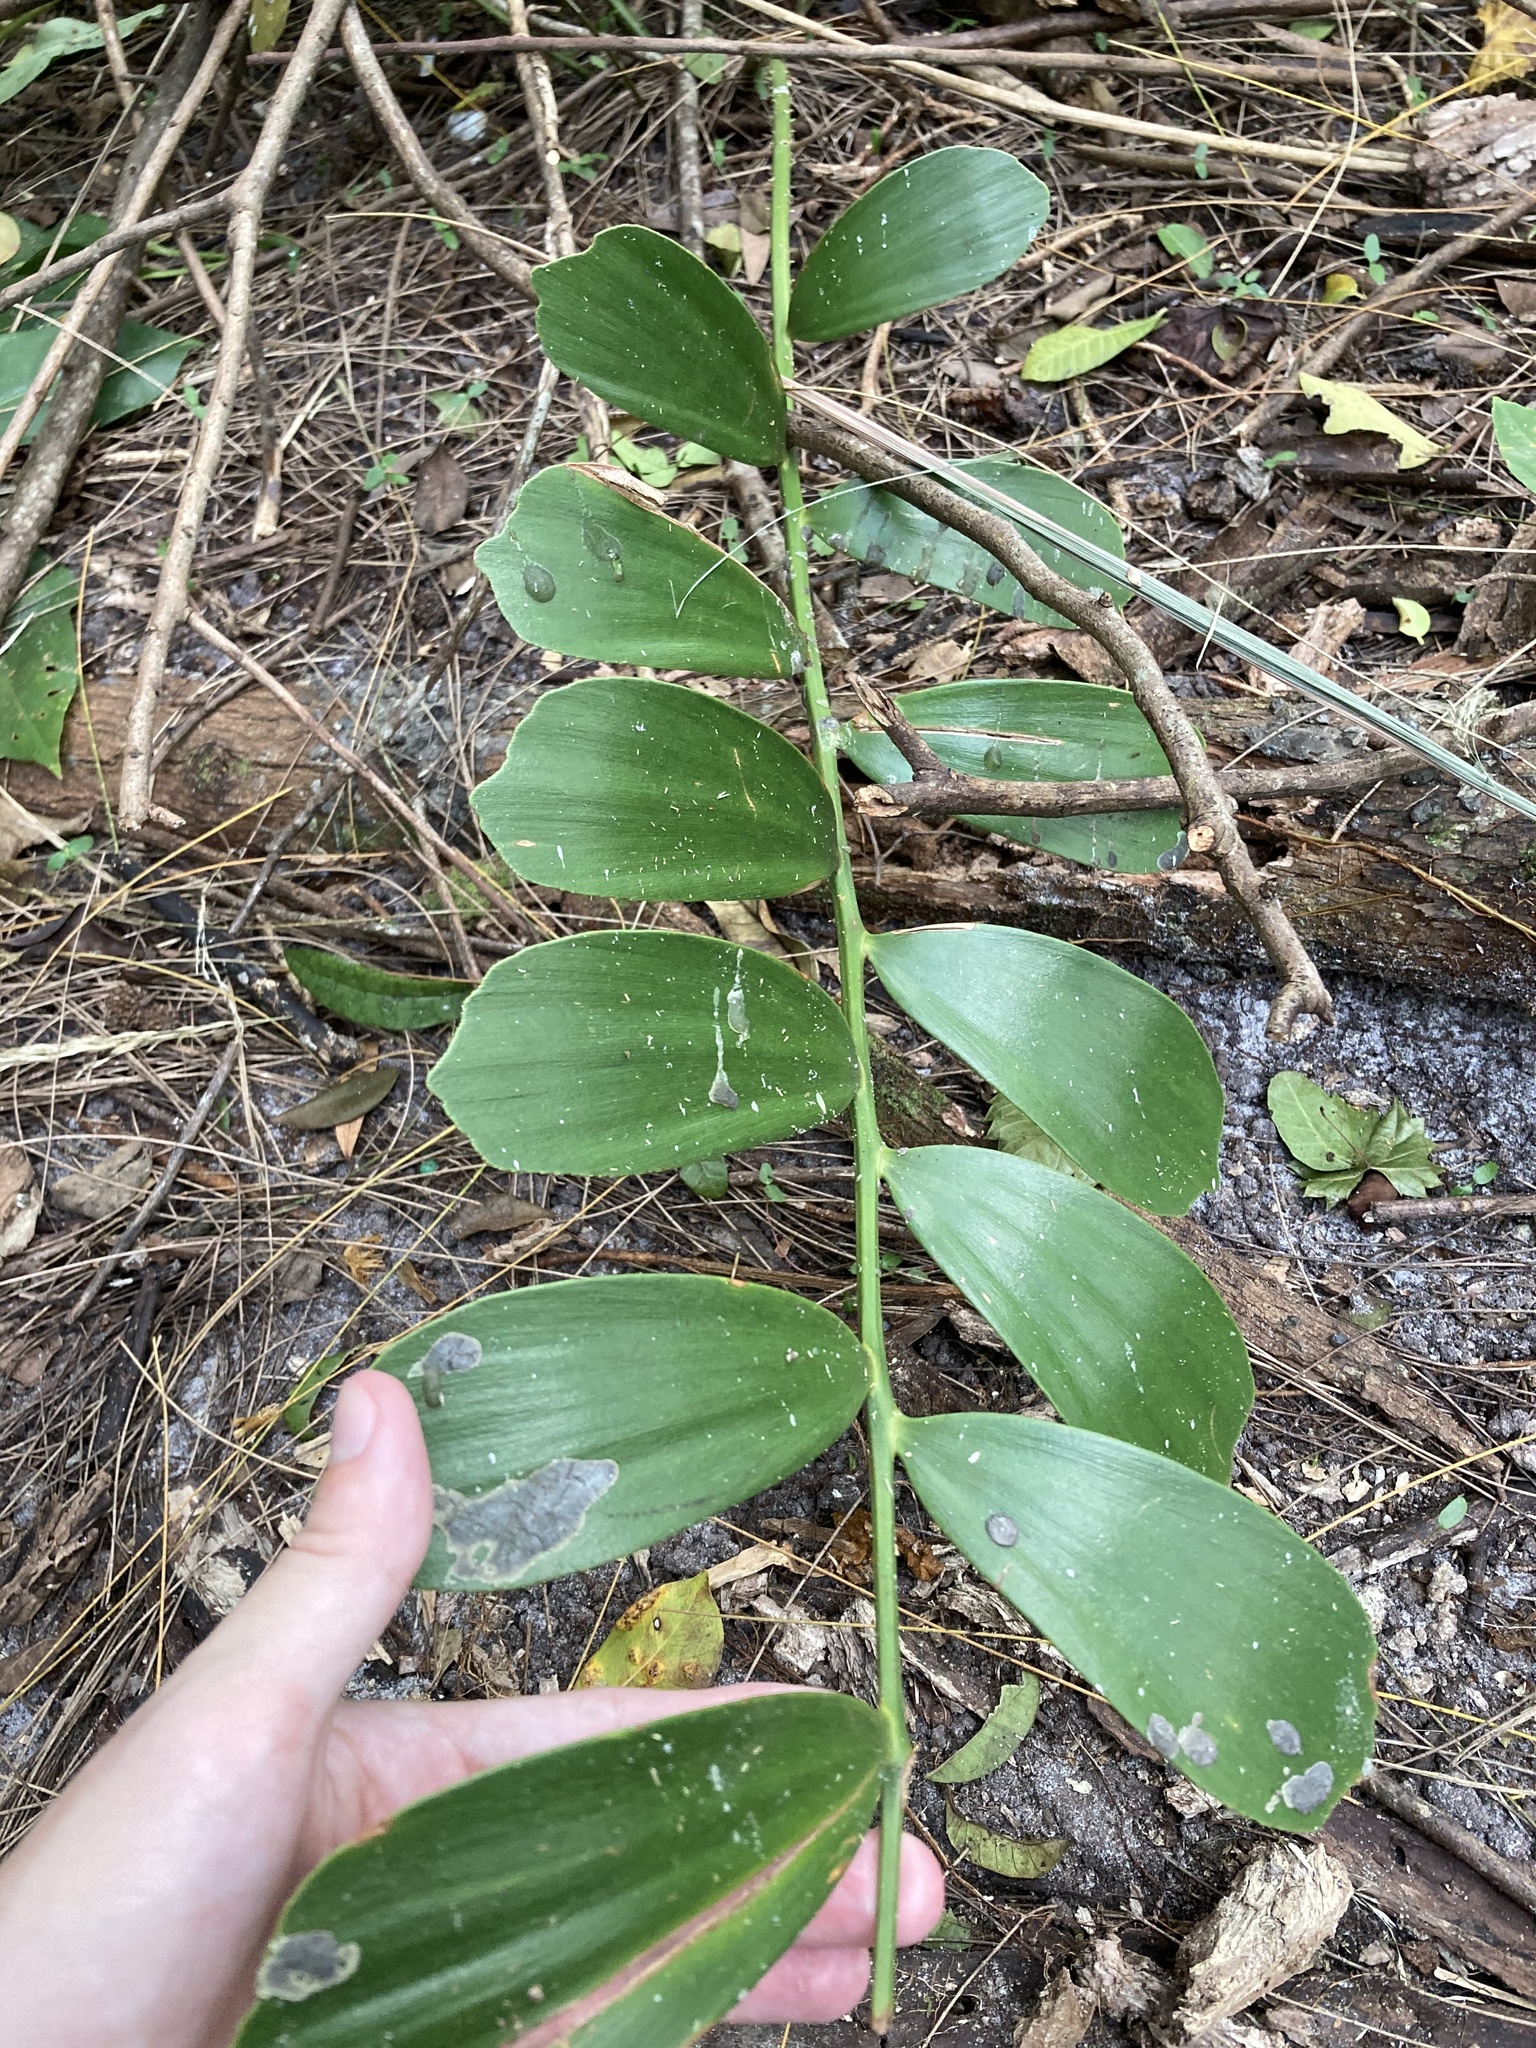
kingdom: Plantae
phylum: Tracheophyta
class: Cycadopsida
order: Cycadales
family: Zamiaceae
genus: Zamia
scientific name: Zamia furfuracea
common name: Cardboard palm
